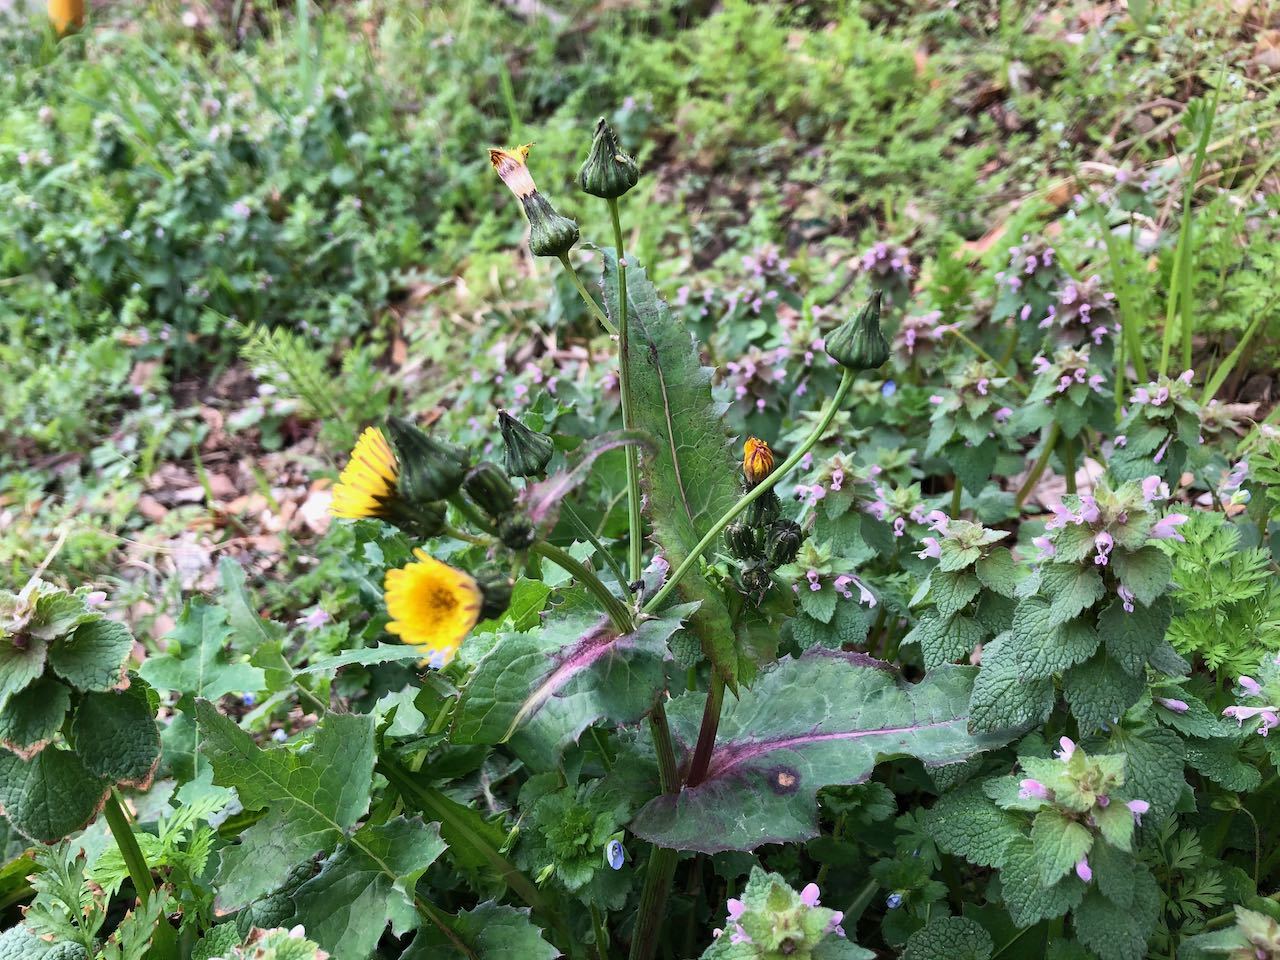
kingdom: Plantae
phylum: Tracheophyta
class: Magnoliopsida
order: Asterales
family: Asteraceae
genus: Sonchus
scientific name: Sonchus oleraceus
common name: Common sowthistle
